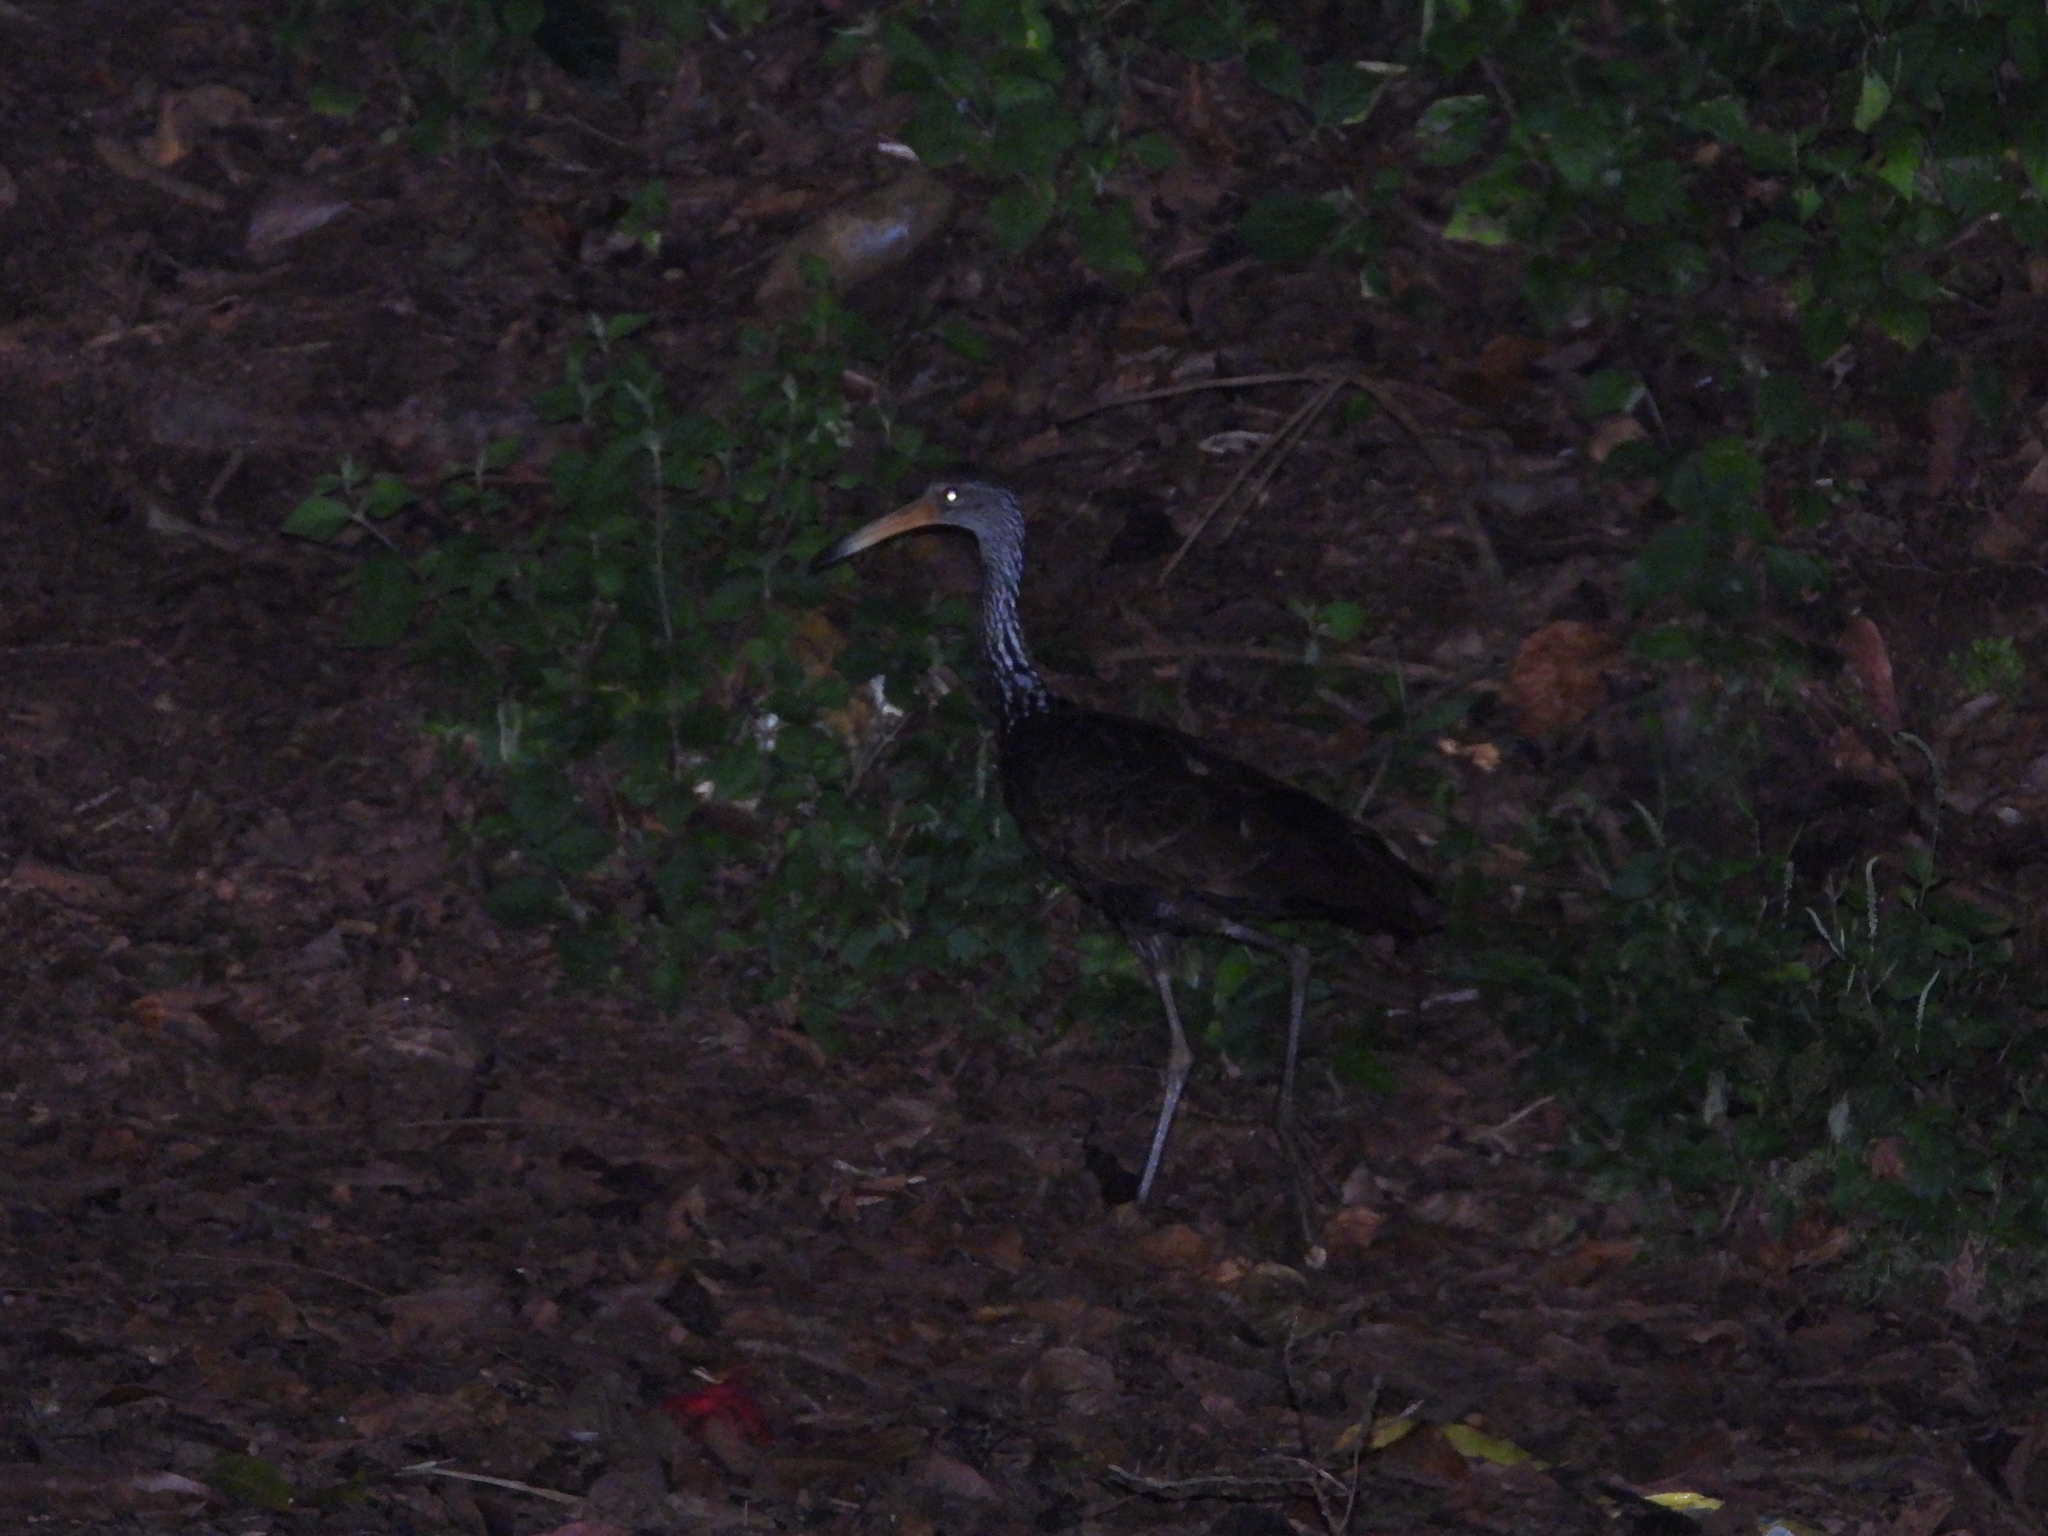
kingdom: Animalia
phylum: Chordata
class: Aves
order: Gruiformes
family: Aramidae
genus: Aramus
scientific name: Aramus guarauna
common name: Limpkin
